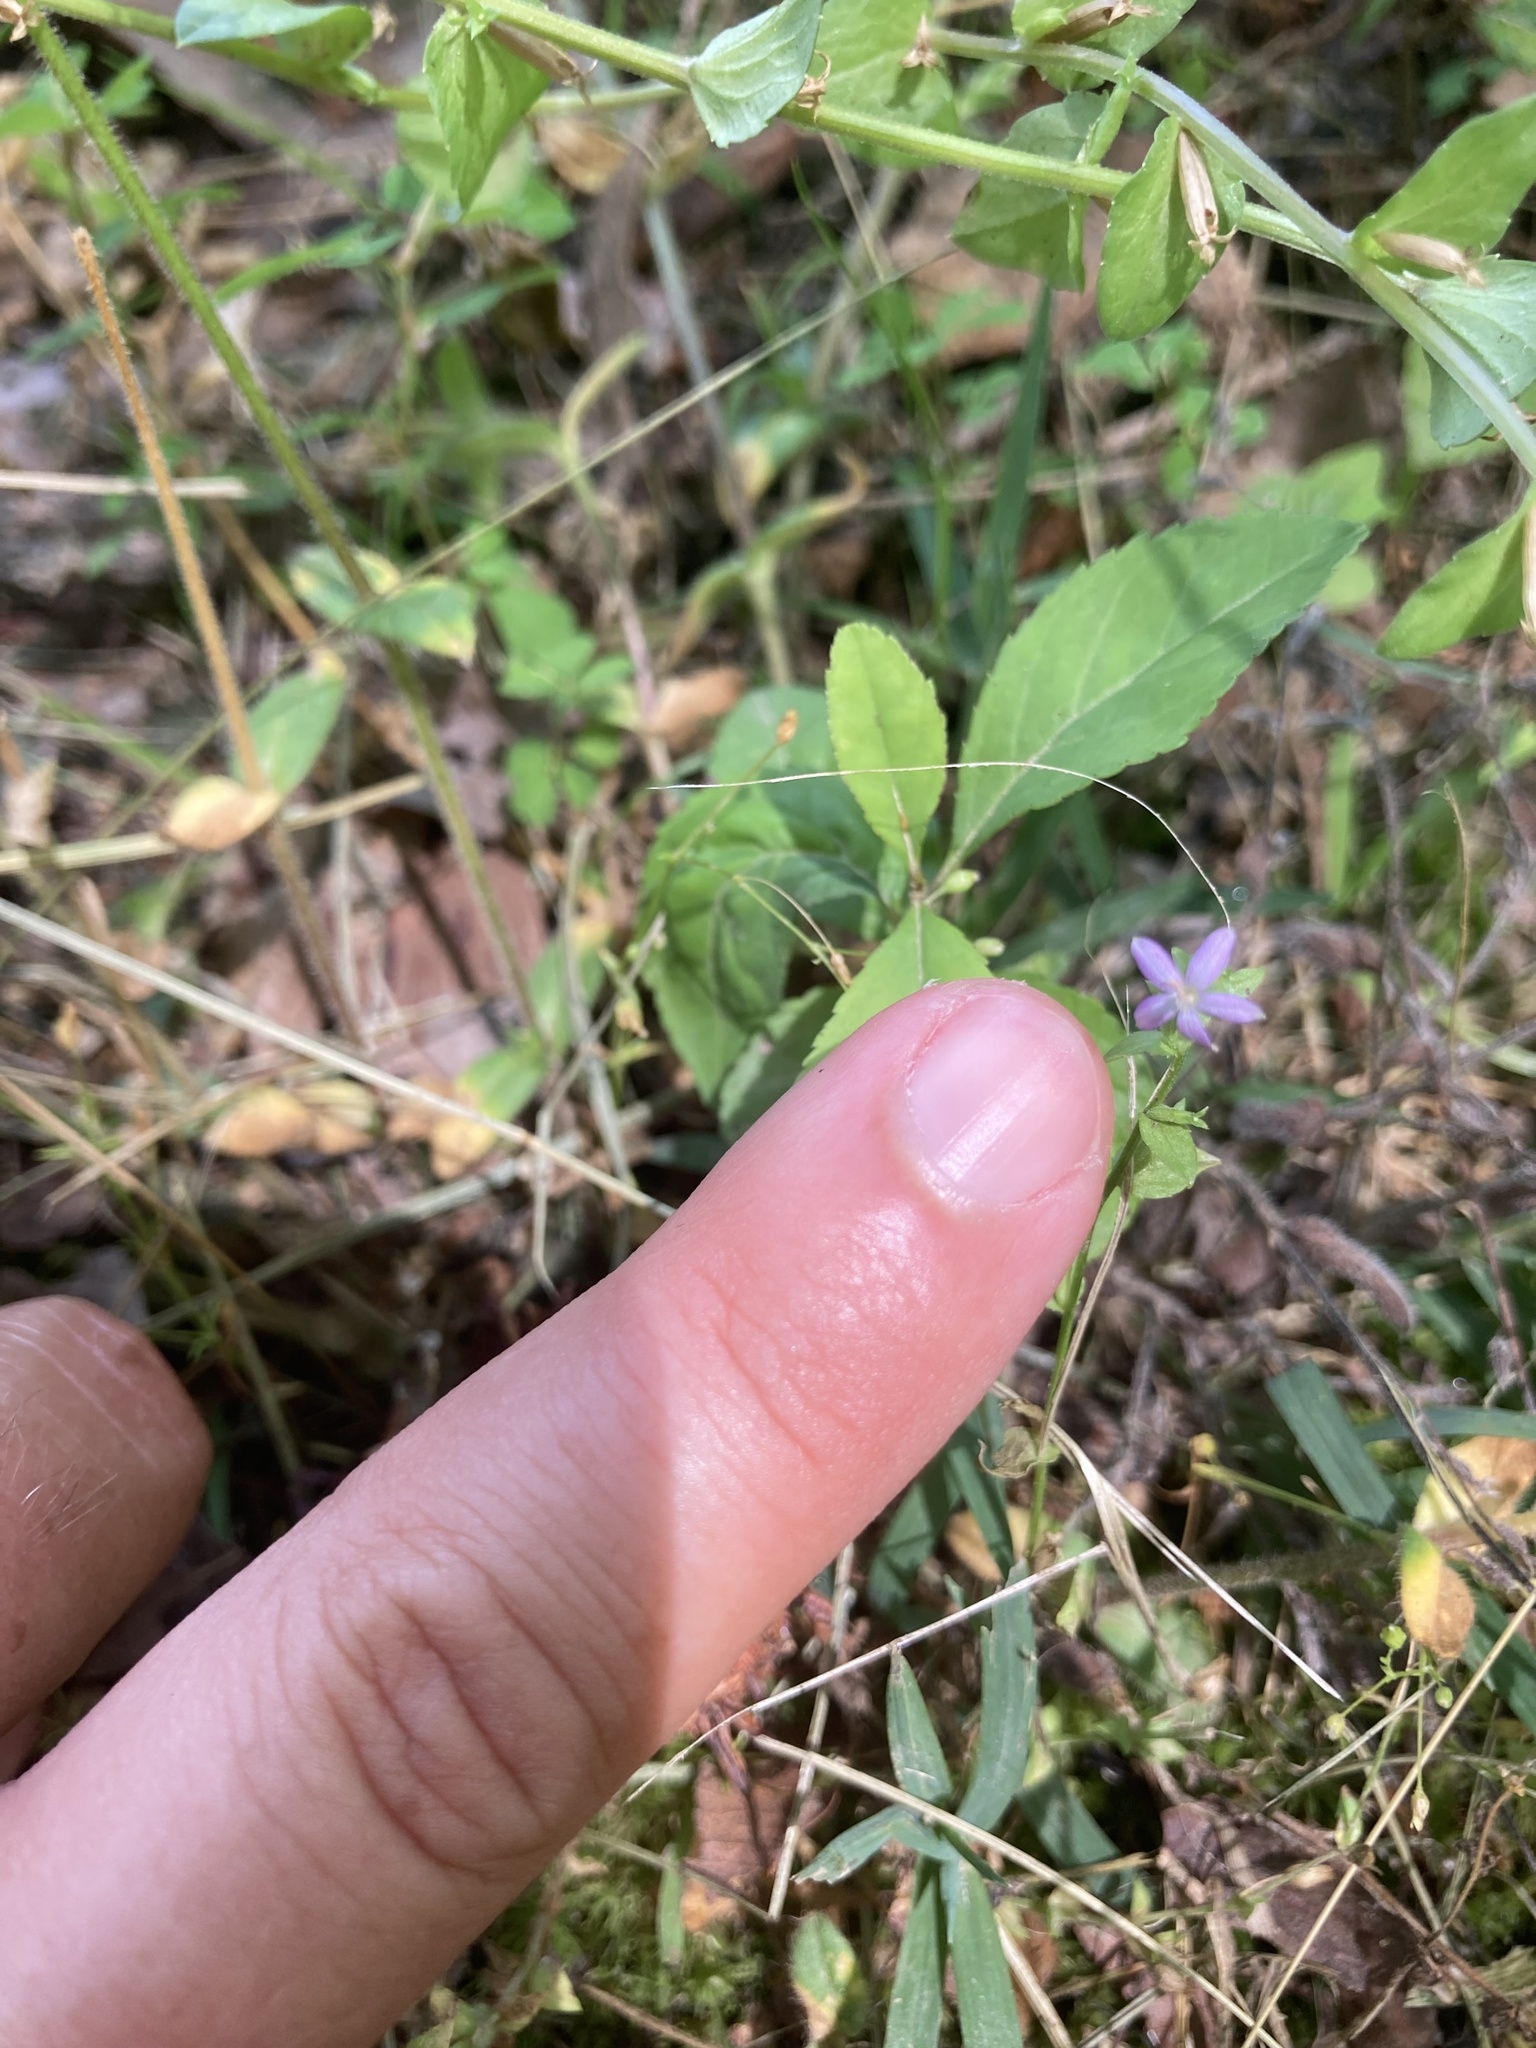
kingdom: Plantae
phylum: Tracheophyta
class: Magnoliopsida
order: Asterales
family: Campanulaceae
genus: Triodanis
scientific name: Triodanis biflora
